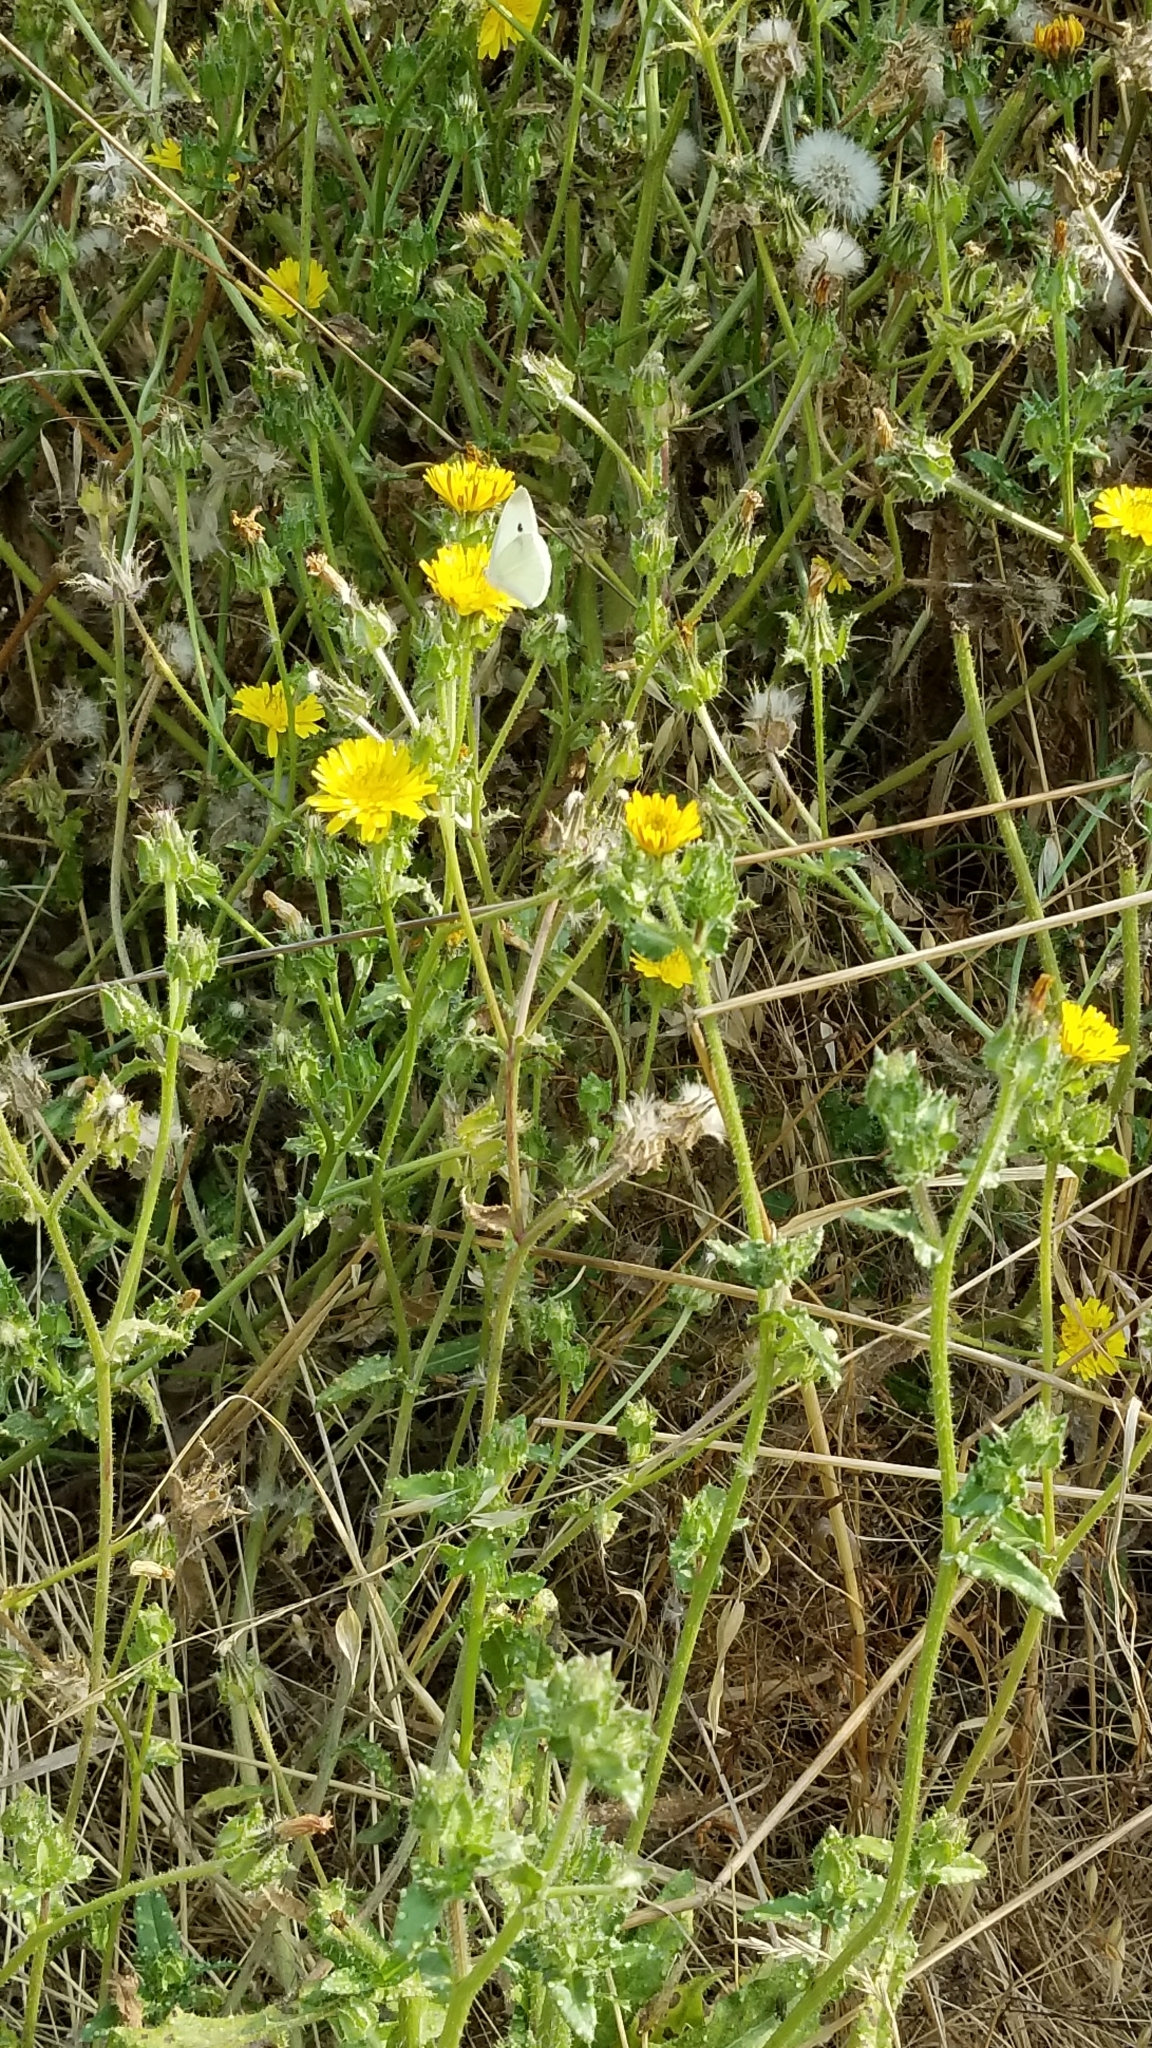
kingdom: Animalia
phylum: Arthropoda
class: Insecta
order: Lepidoptera
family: Pieridae
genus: Pieris
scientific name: Pieris rapae
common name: Small white
